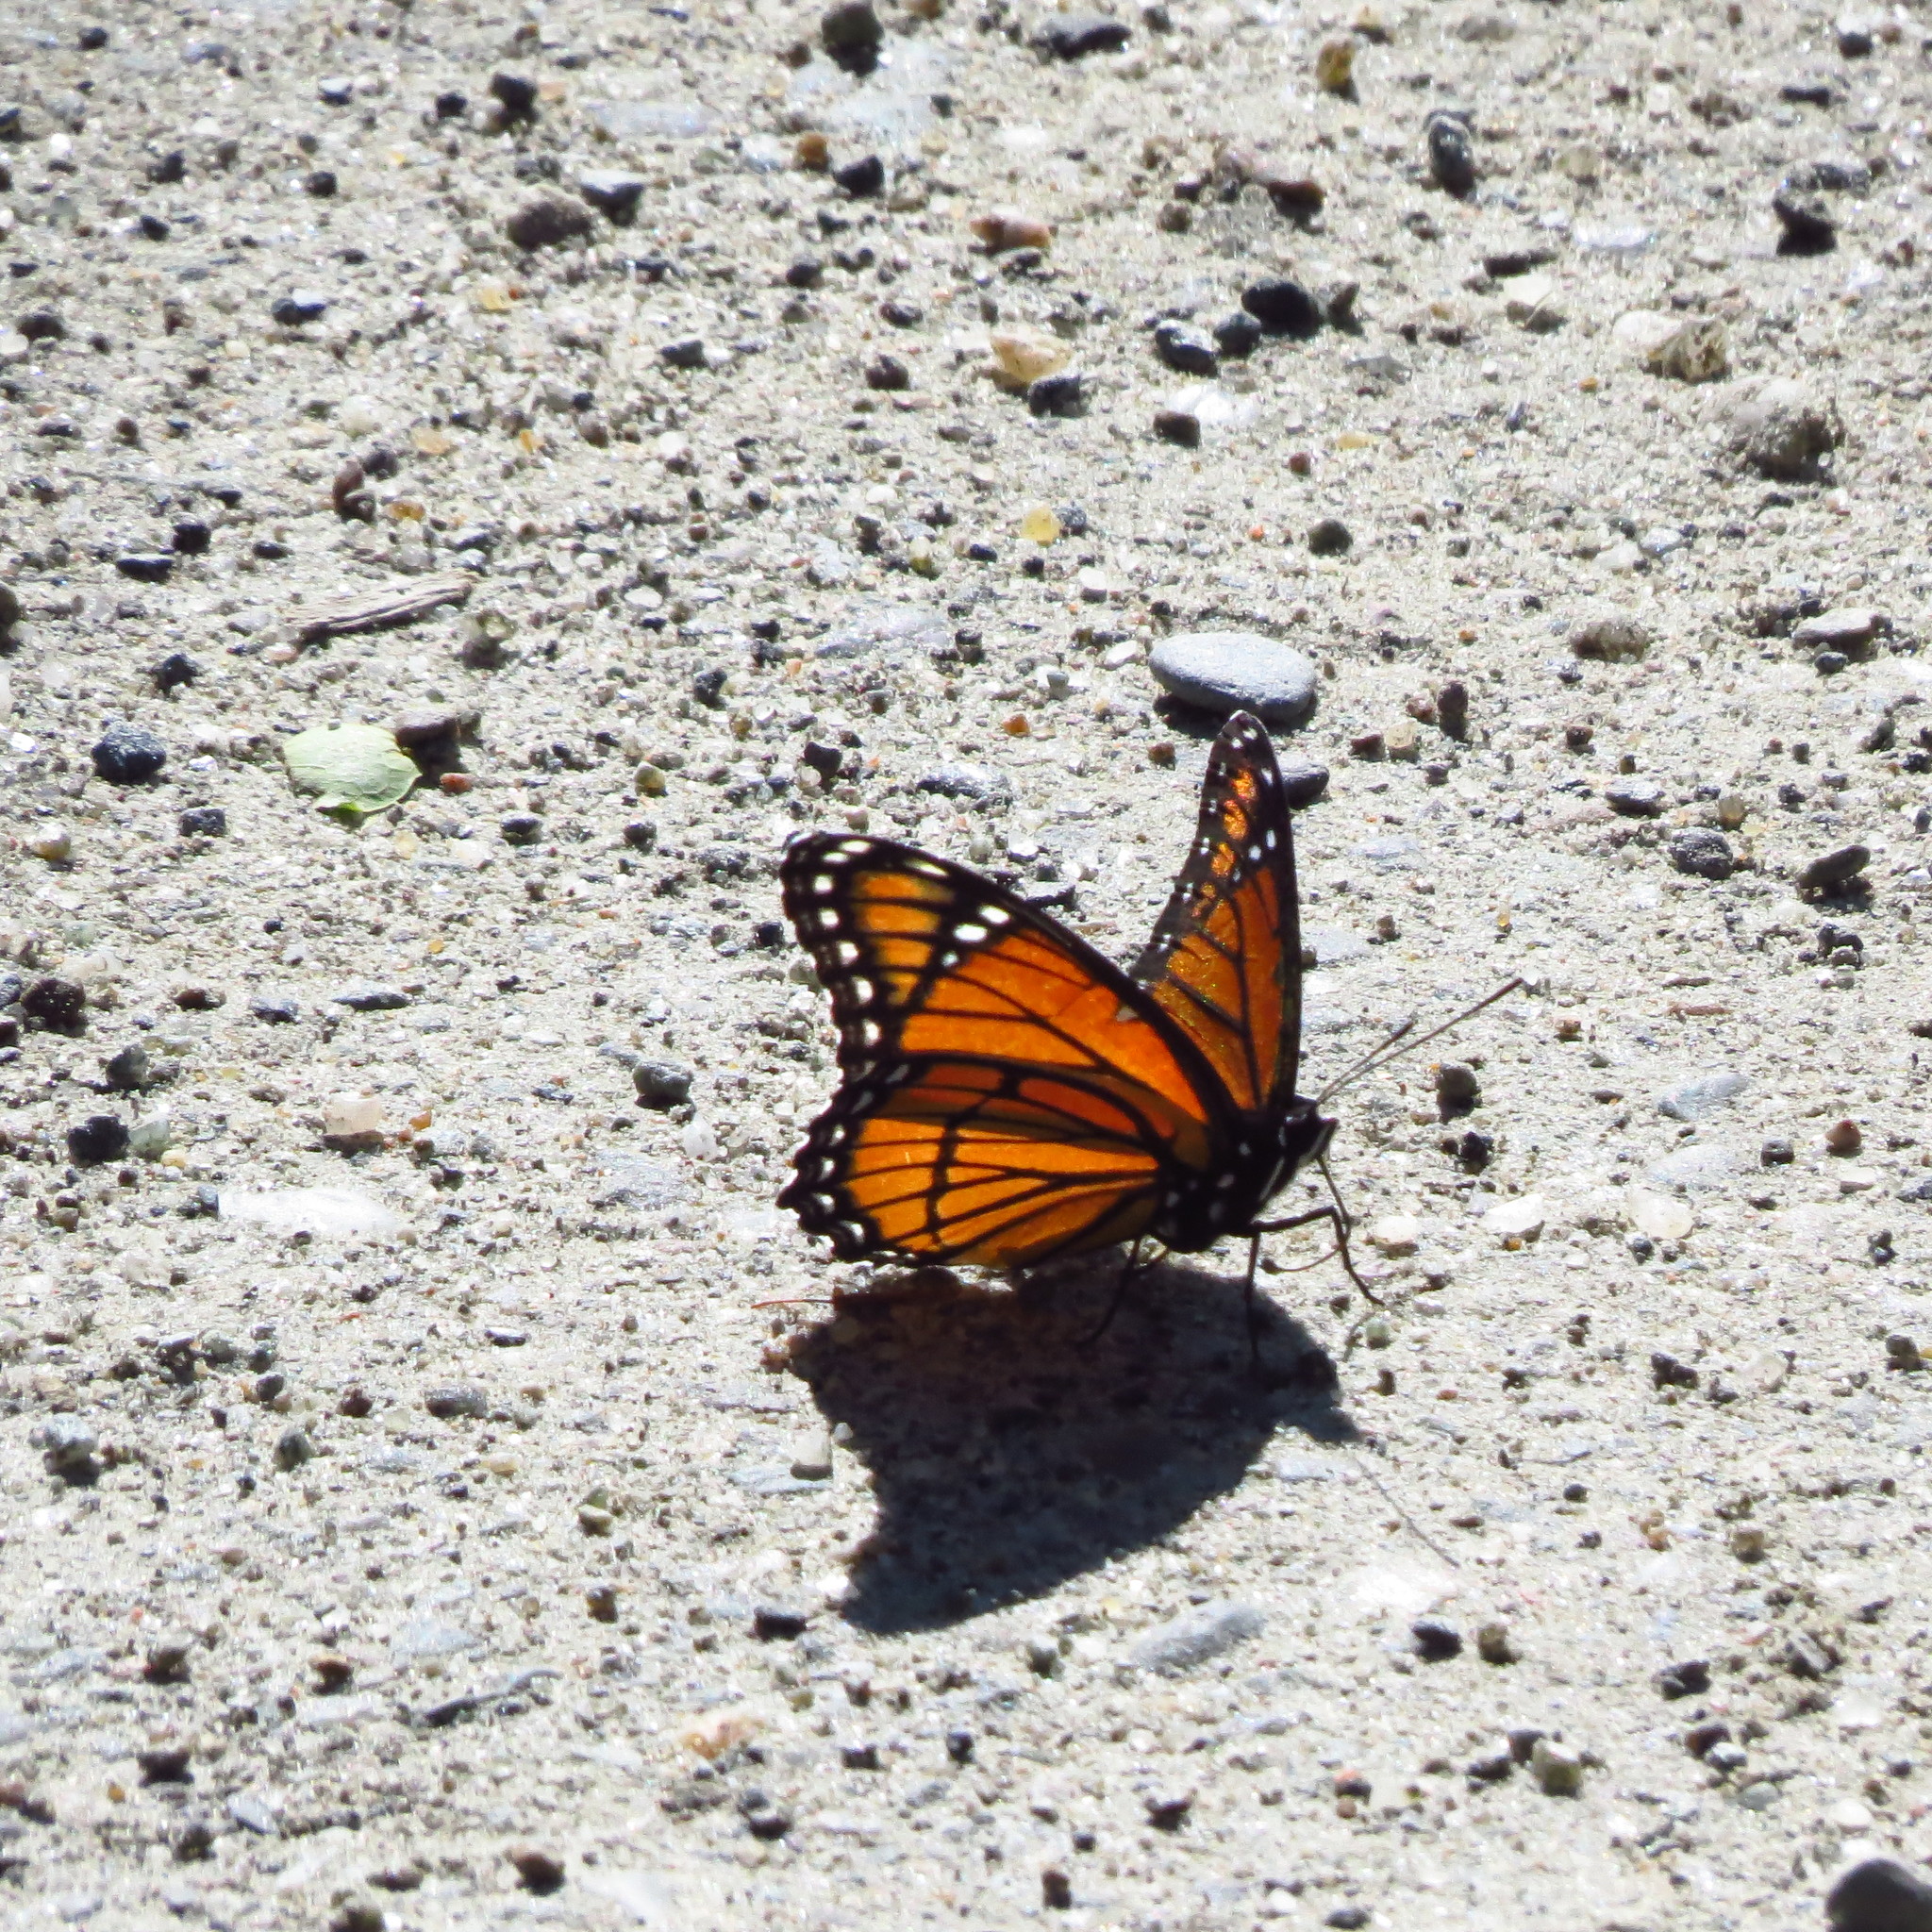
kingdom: Animalia
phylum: Arthropoda
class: Insecta
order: Lepidoptera
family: Nymphalidae
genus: Limenitis
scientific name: Limenitis archippus
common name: Viceroy
